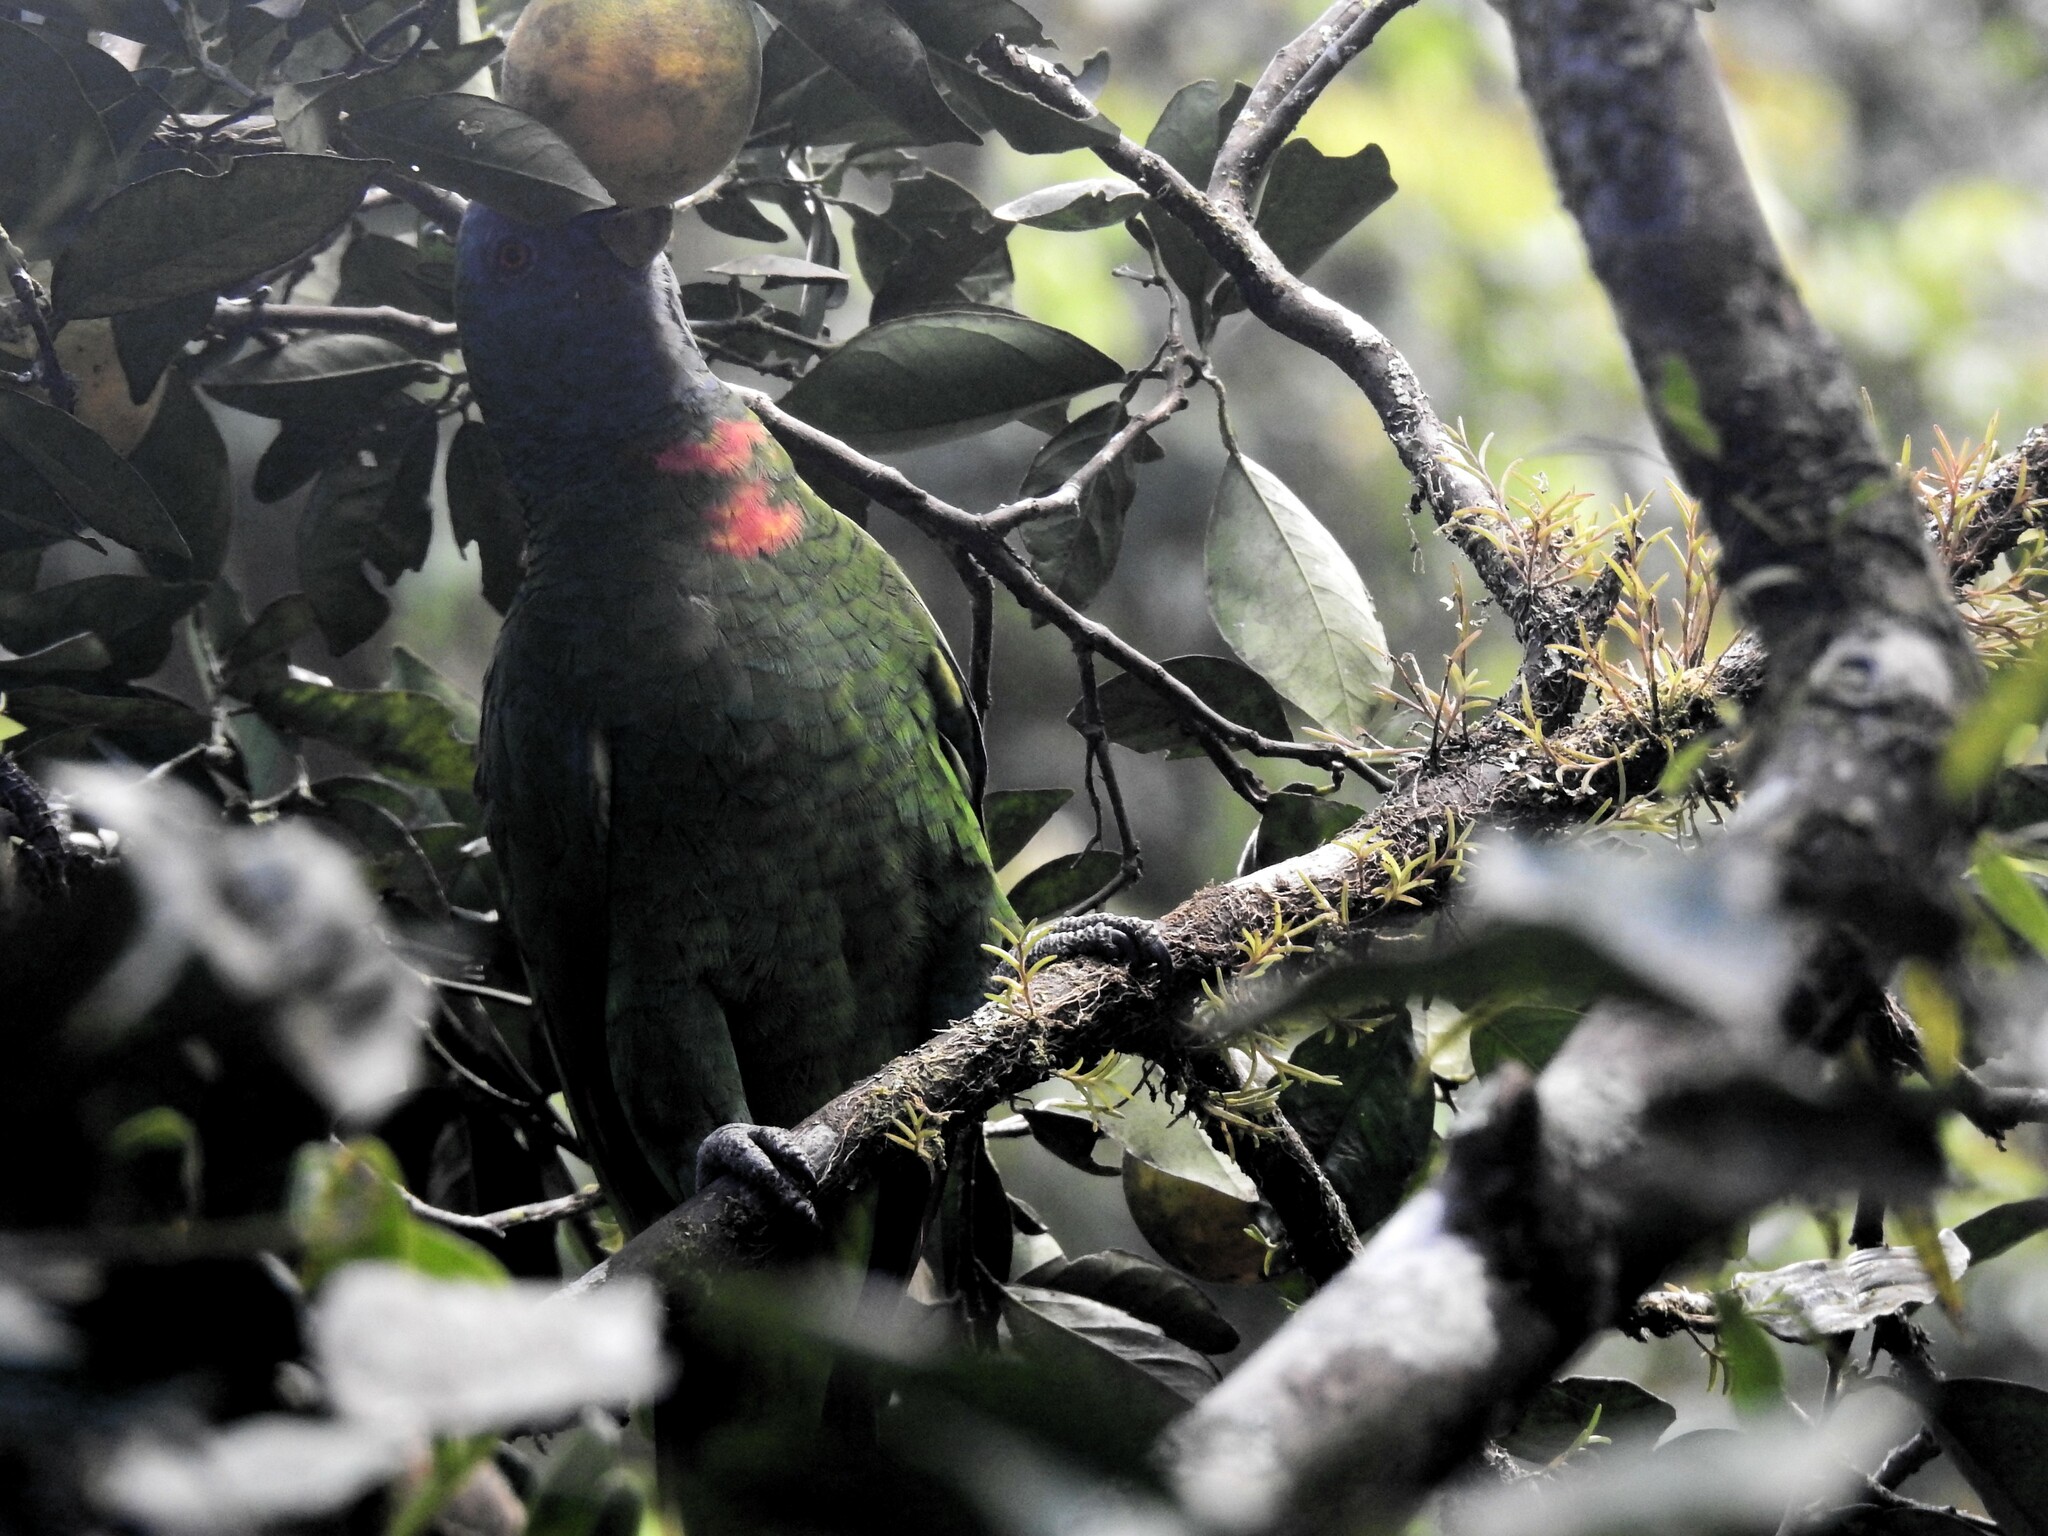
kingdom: Animalia
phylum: Chordata
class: Aves
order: Psittaciformes
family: Psittacidae
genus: Amazona
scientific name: Amazona arausiaca
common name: Red-necked amazon
